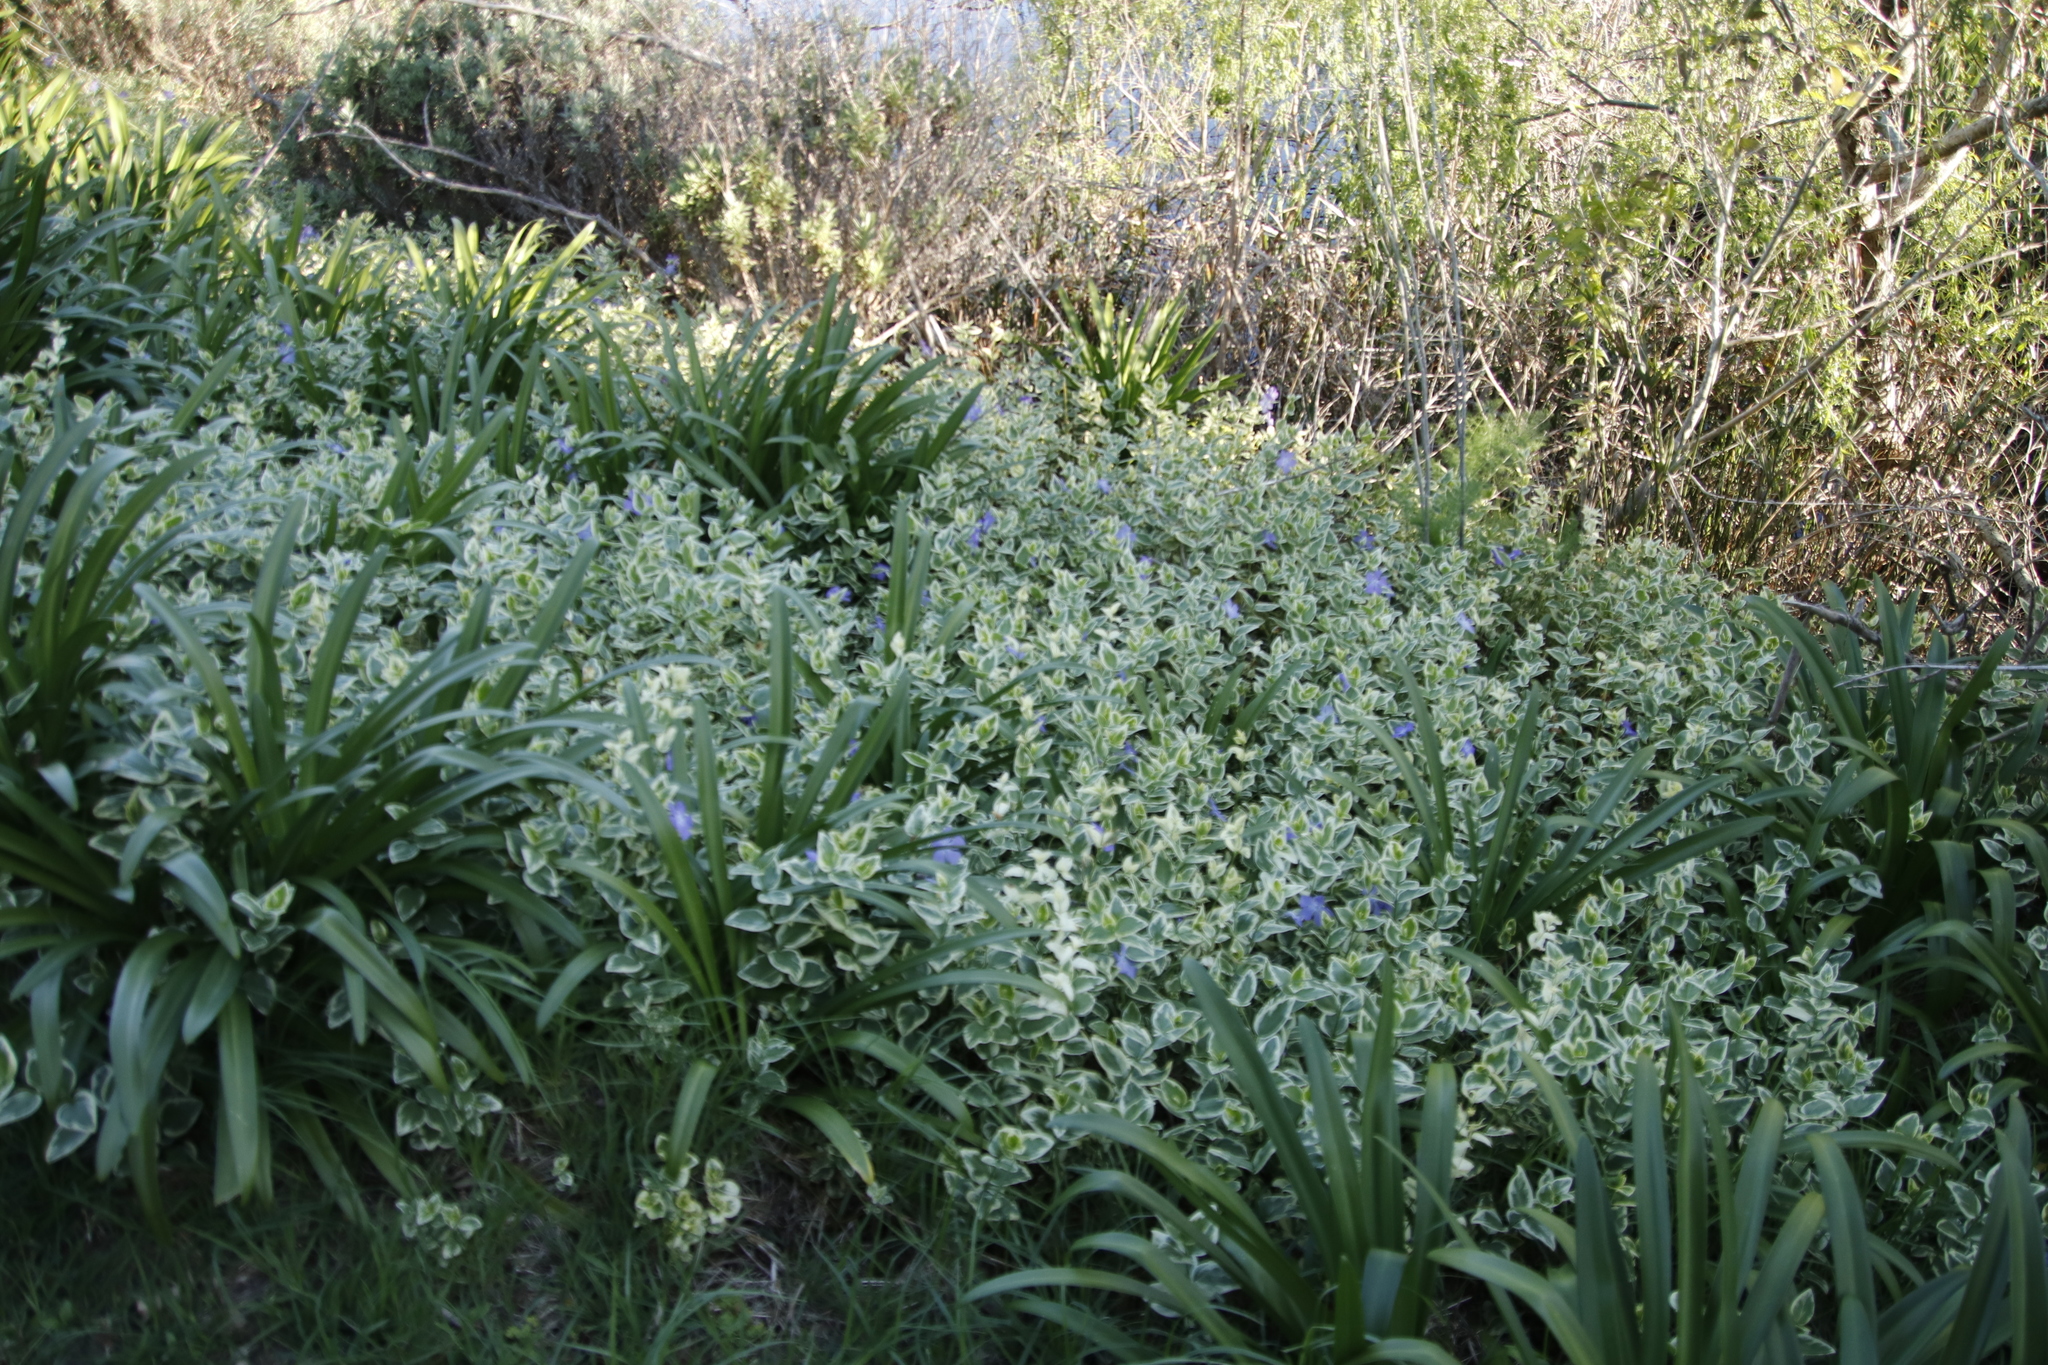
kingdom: Plantae
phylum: Tracheophyta
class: Magnoliopsida
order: Gentianales
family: Apocynaceae
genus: Vinca
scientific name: Vinca major
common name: Greater periwinkle
